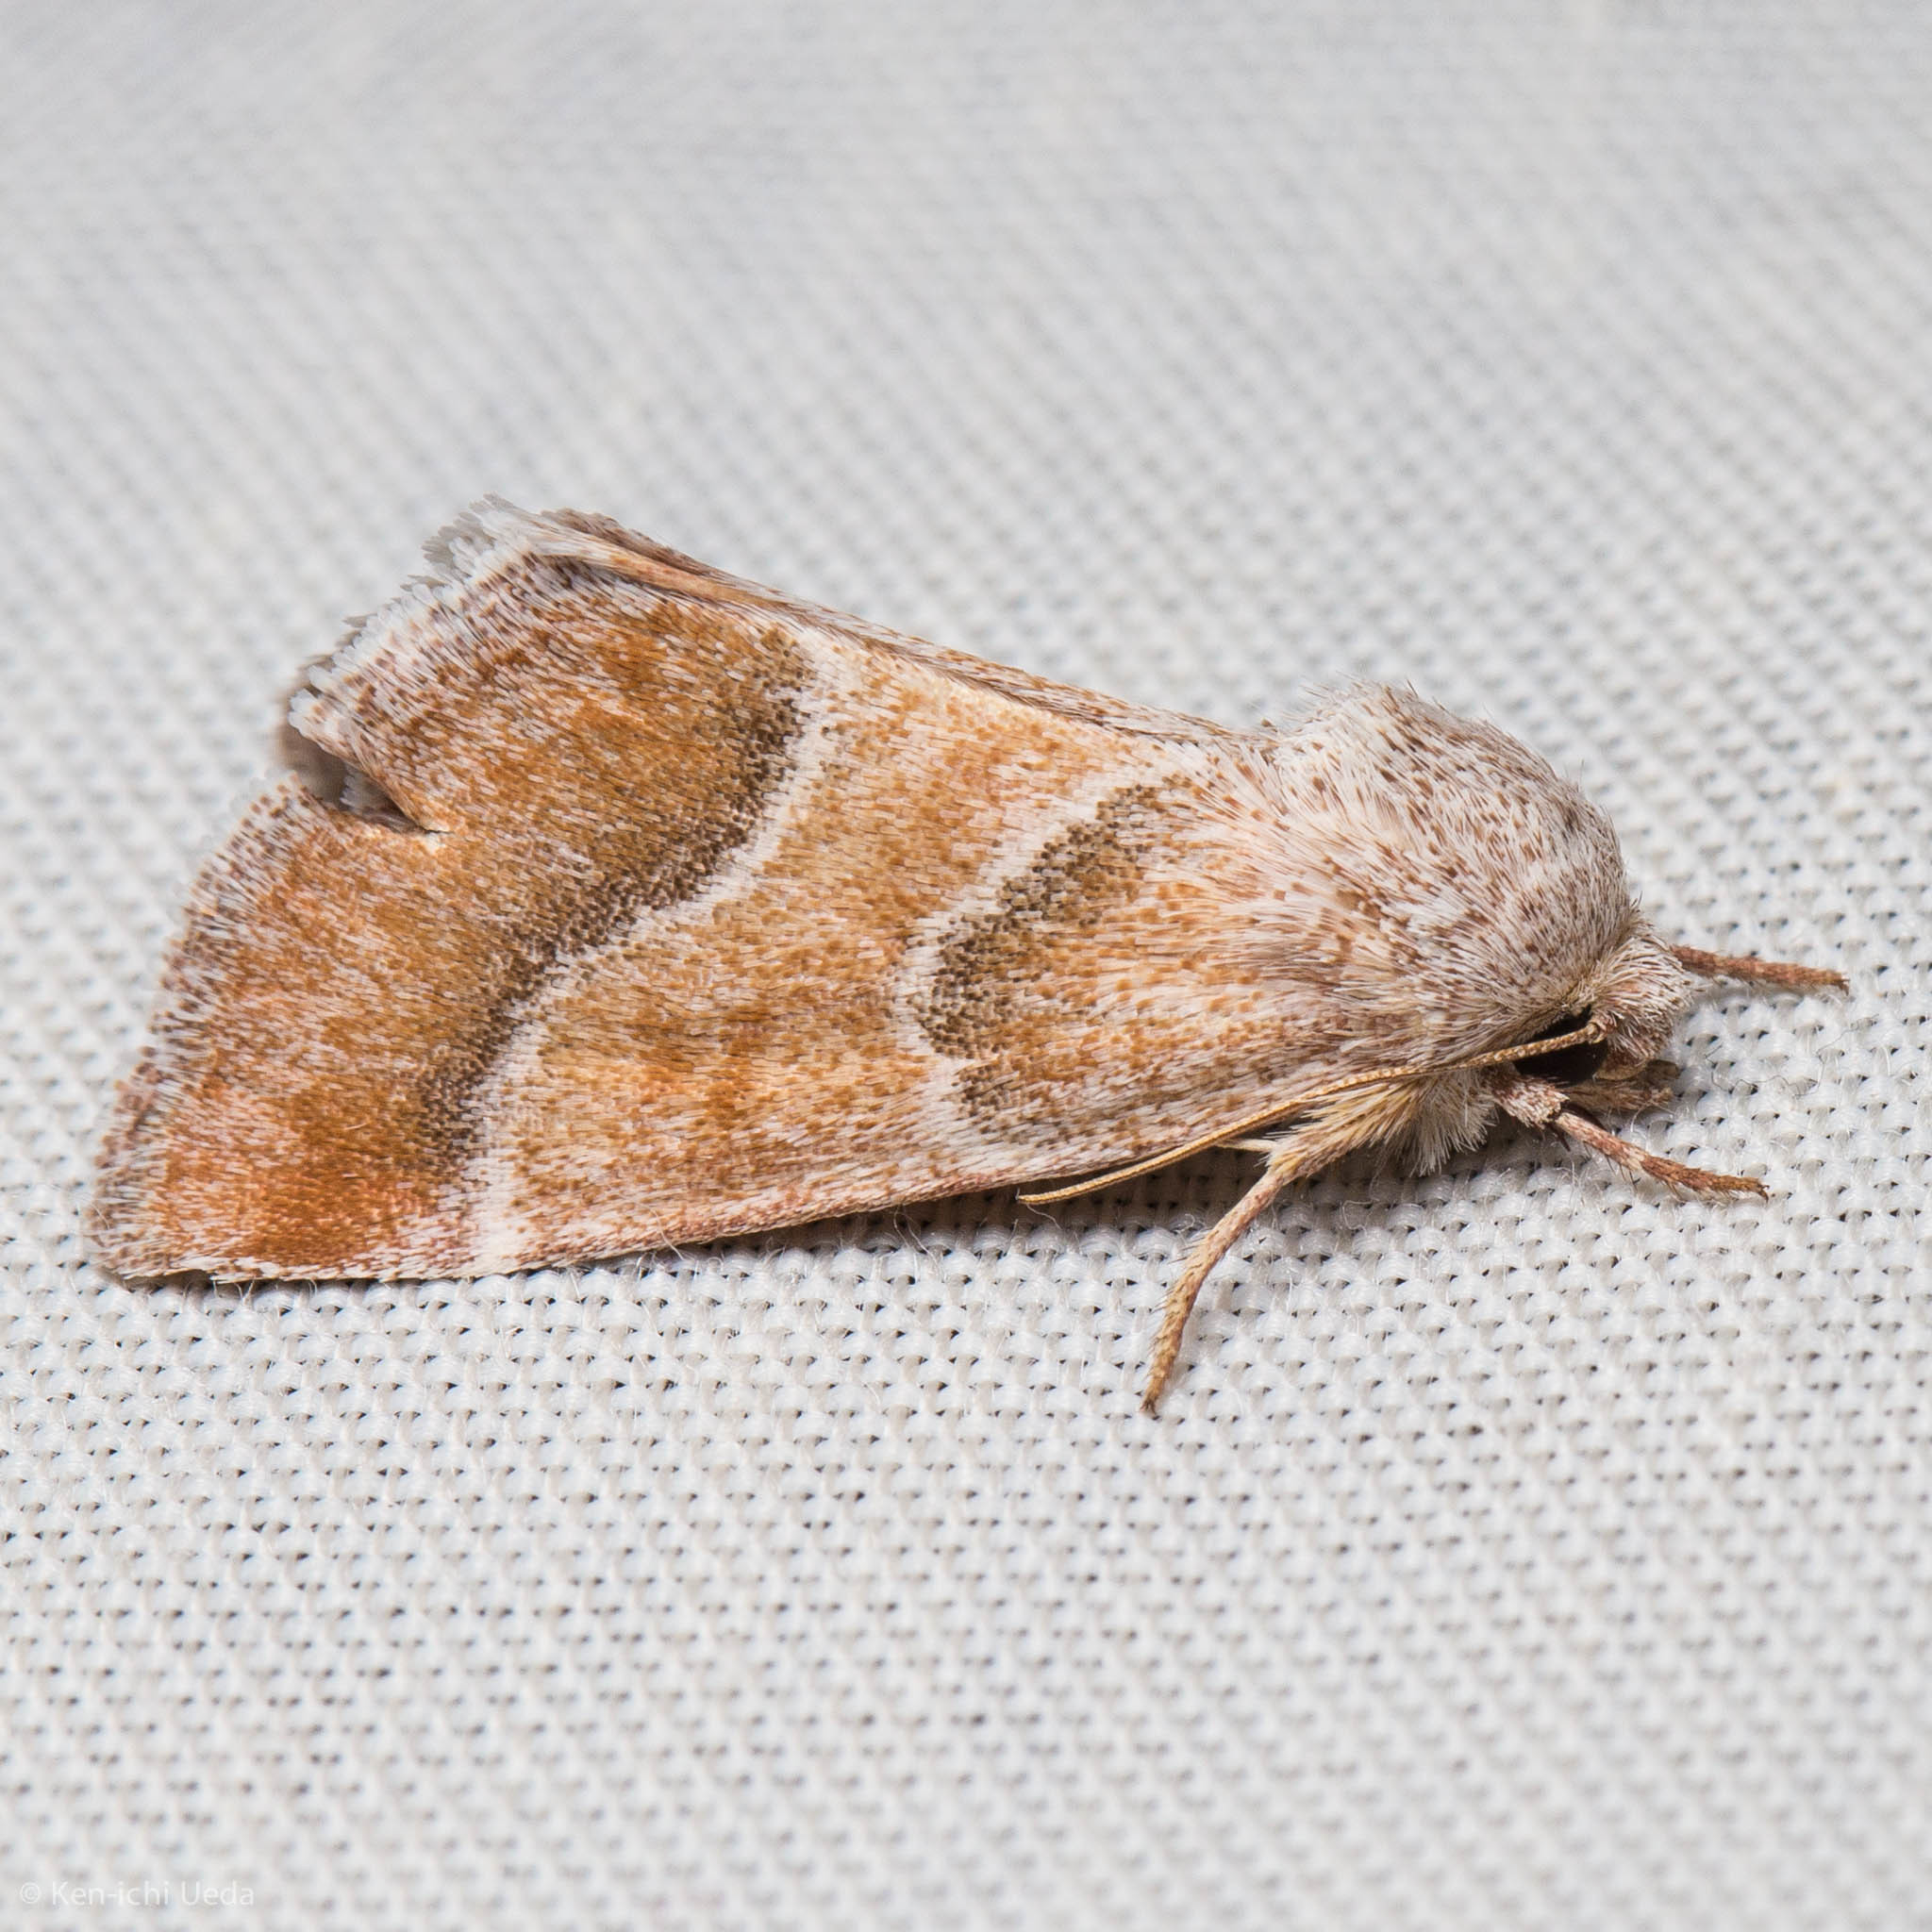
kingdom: Animalia
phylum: Arthropoda
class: Insecta
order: Lepidoptera
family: Noctuidae
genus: Schinia
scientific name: Schinia buta
